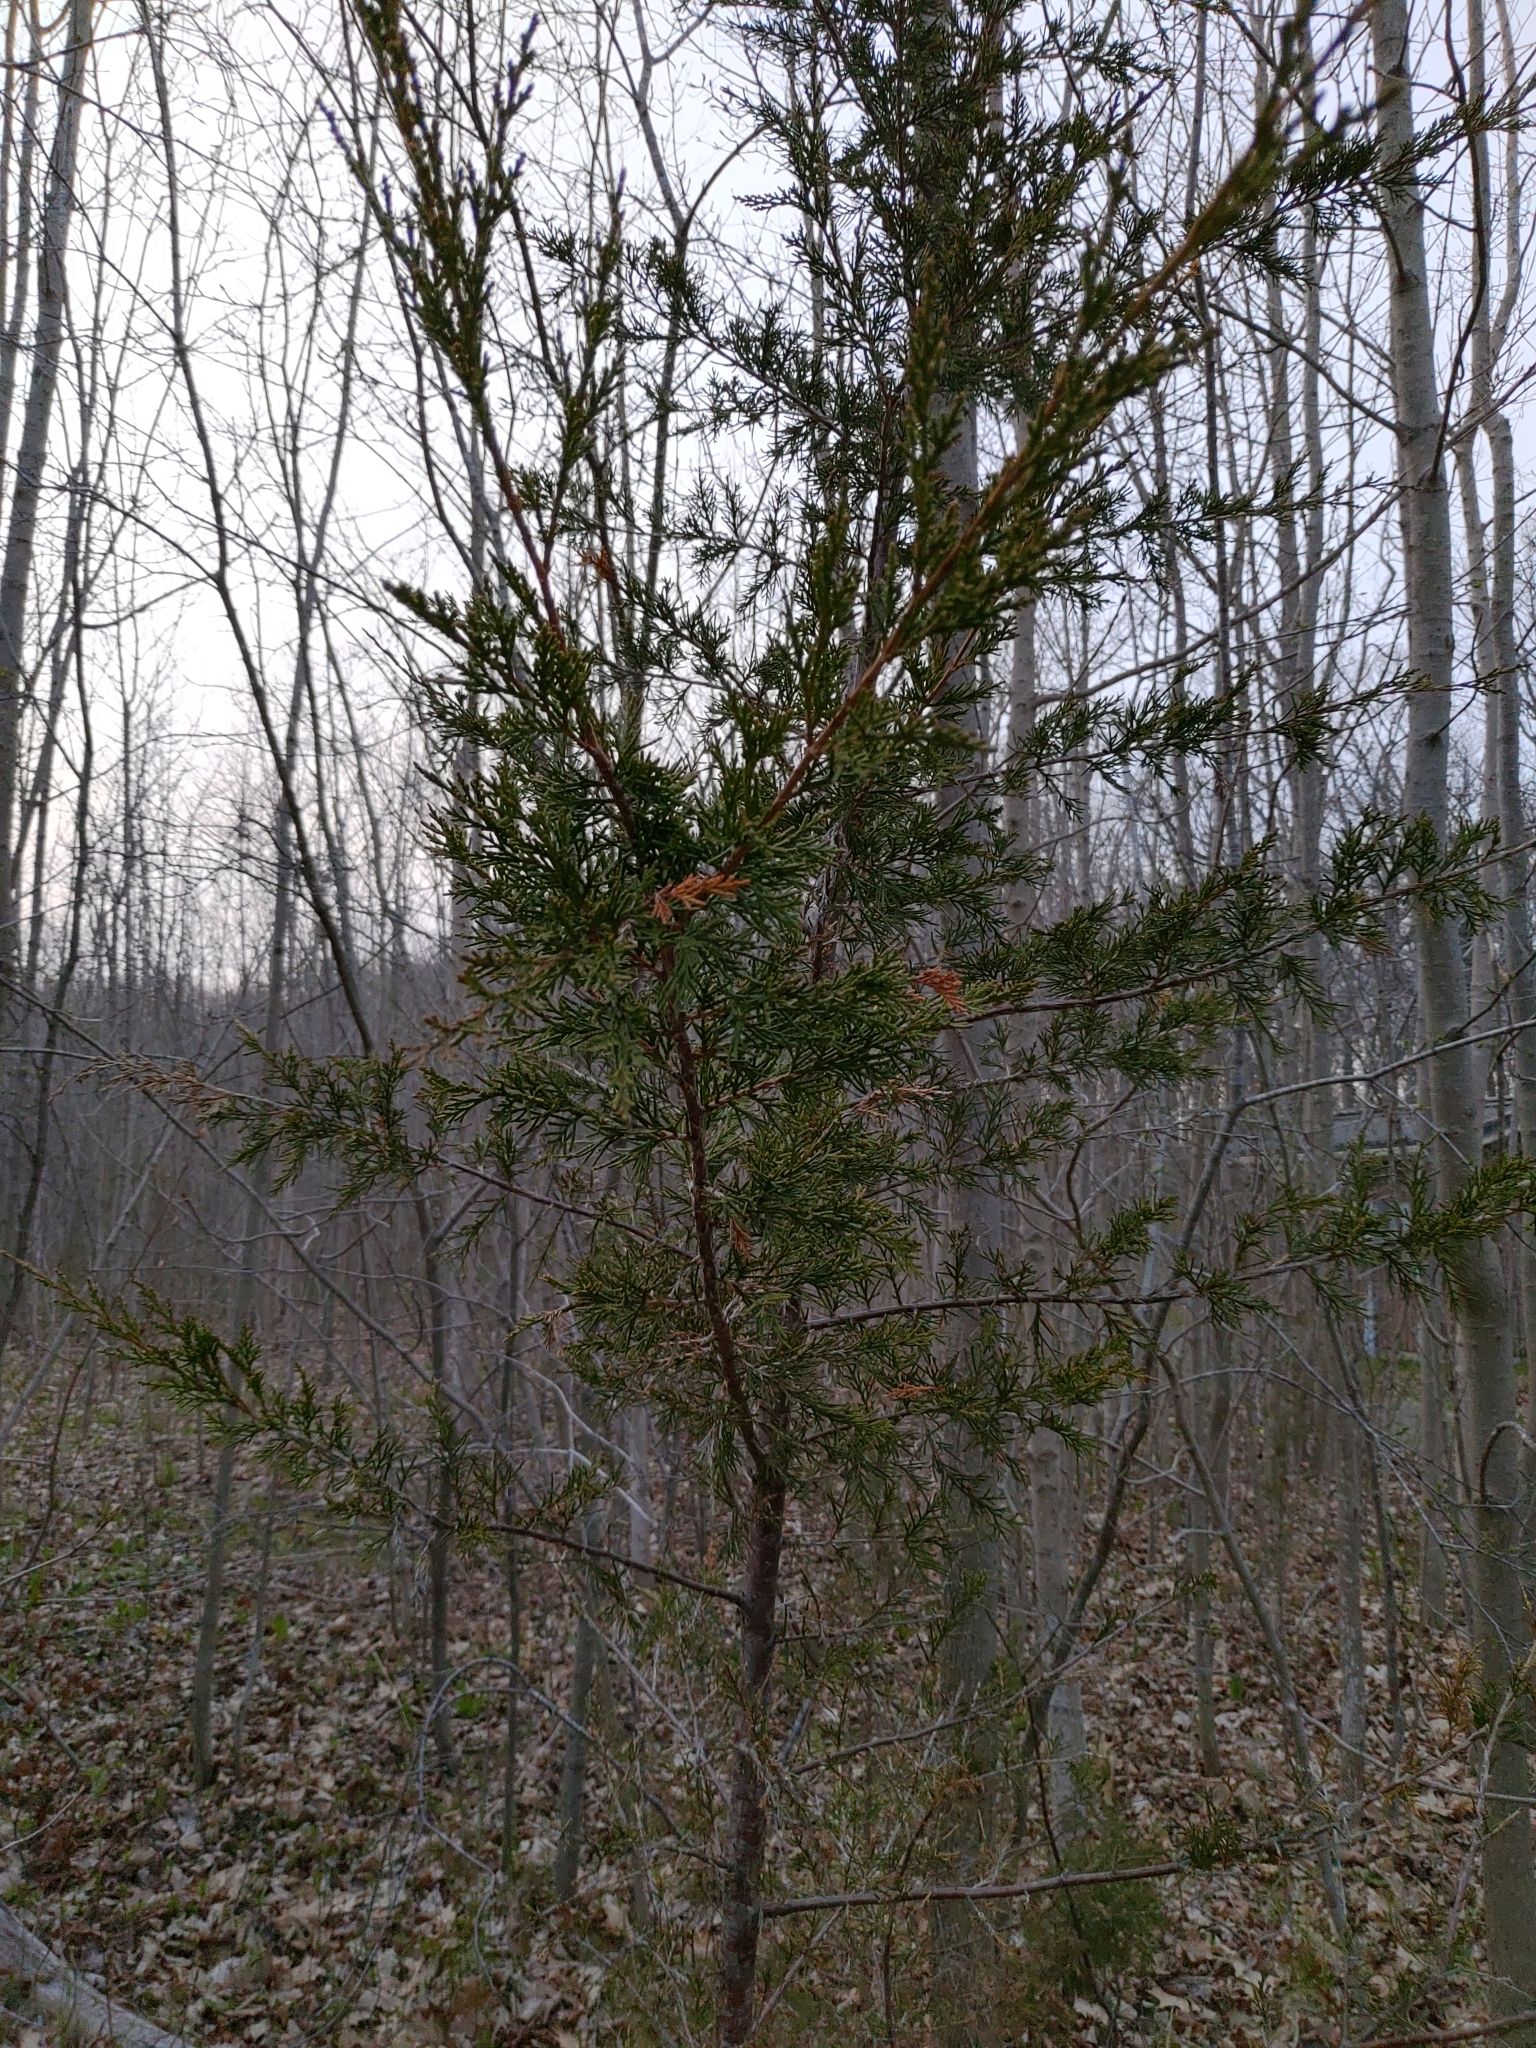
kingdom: Plantae
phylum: Tracheophyta
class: Pinopsida
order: Pinales
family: Cupressaceae
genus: Juniperus
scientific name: Juniperus virginiana
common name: Red juniper
